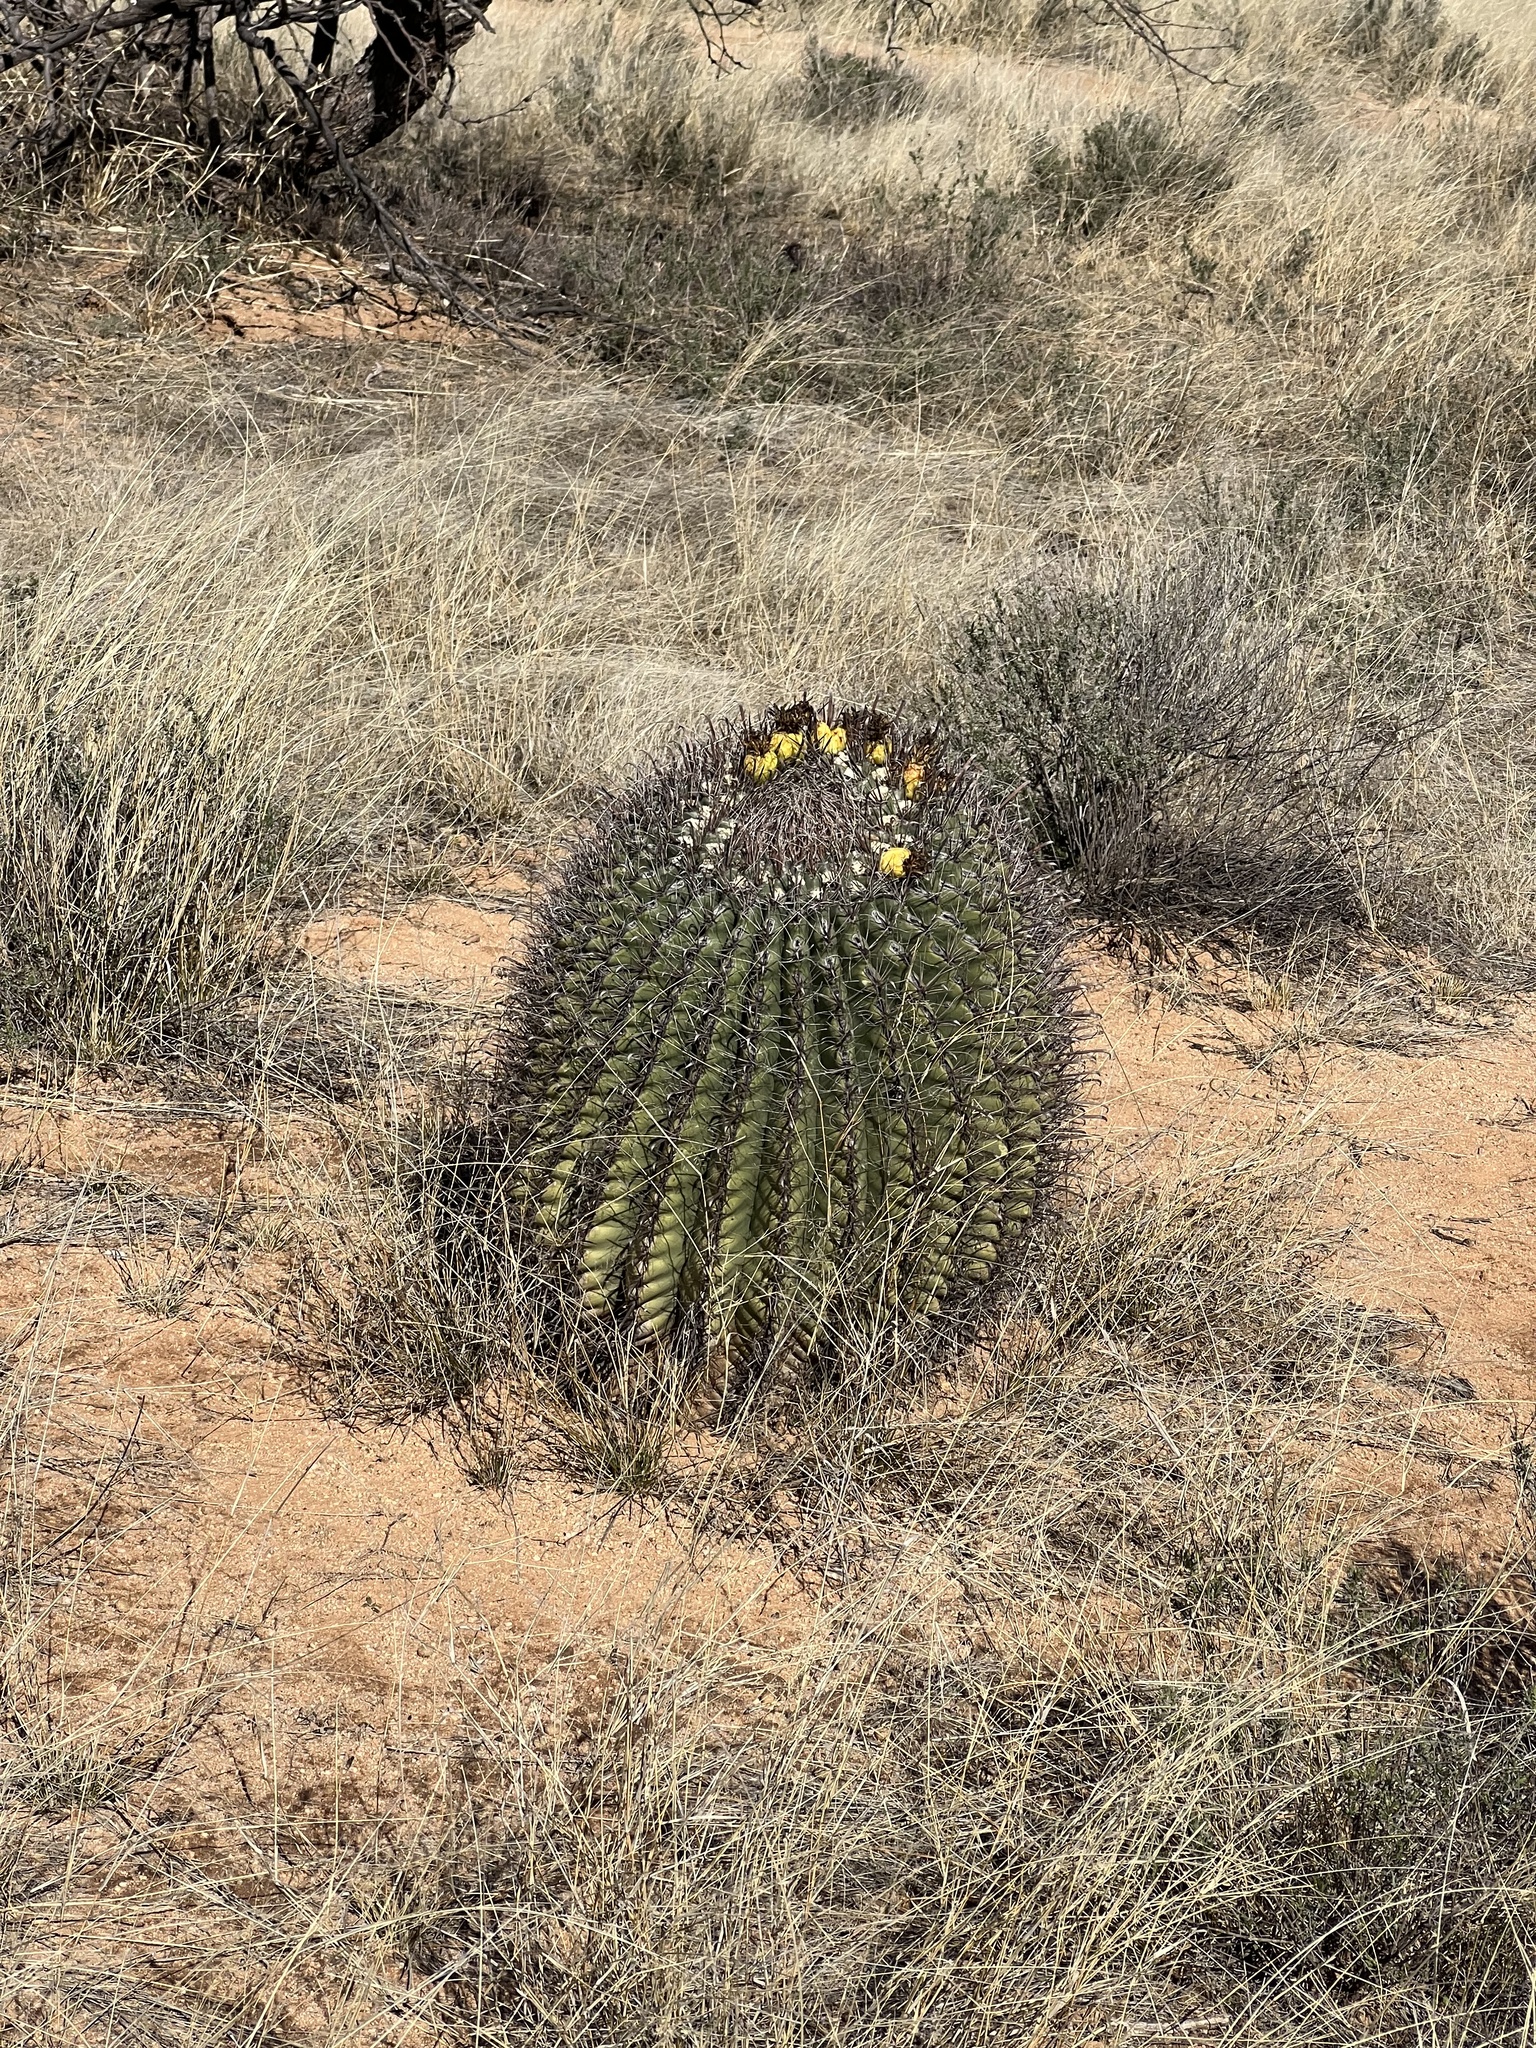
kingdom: Plantae
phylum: Tracheophyta
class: Magnoliopsida
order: Caryophyllales
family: Cactaceae
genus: Ferocactus
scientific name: Ferocactus wislizeni
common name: Candy barrel cactus
